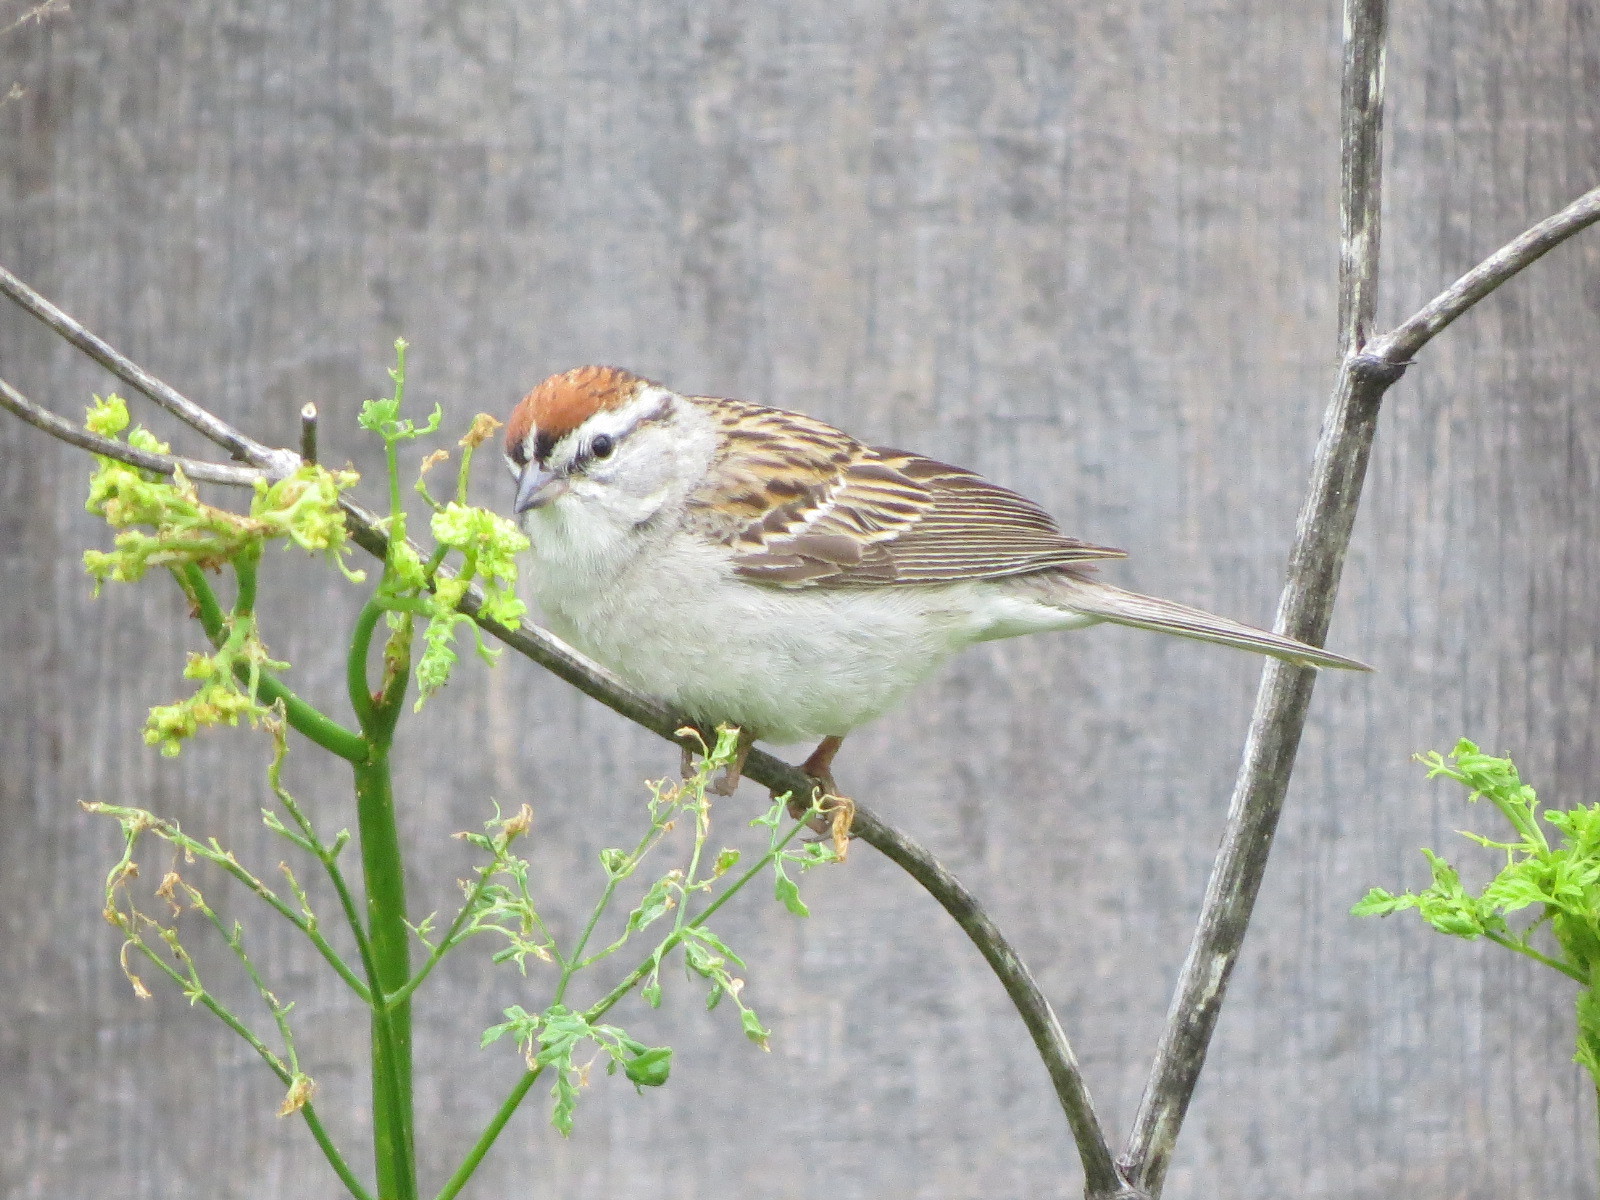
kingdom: Animalia
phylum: Chordata
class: Aves
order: Passeriformes
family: Passerellidae
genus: Spizella
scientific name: Spizella passerina
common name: Chipping sparrow
